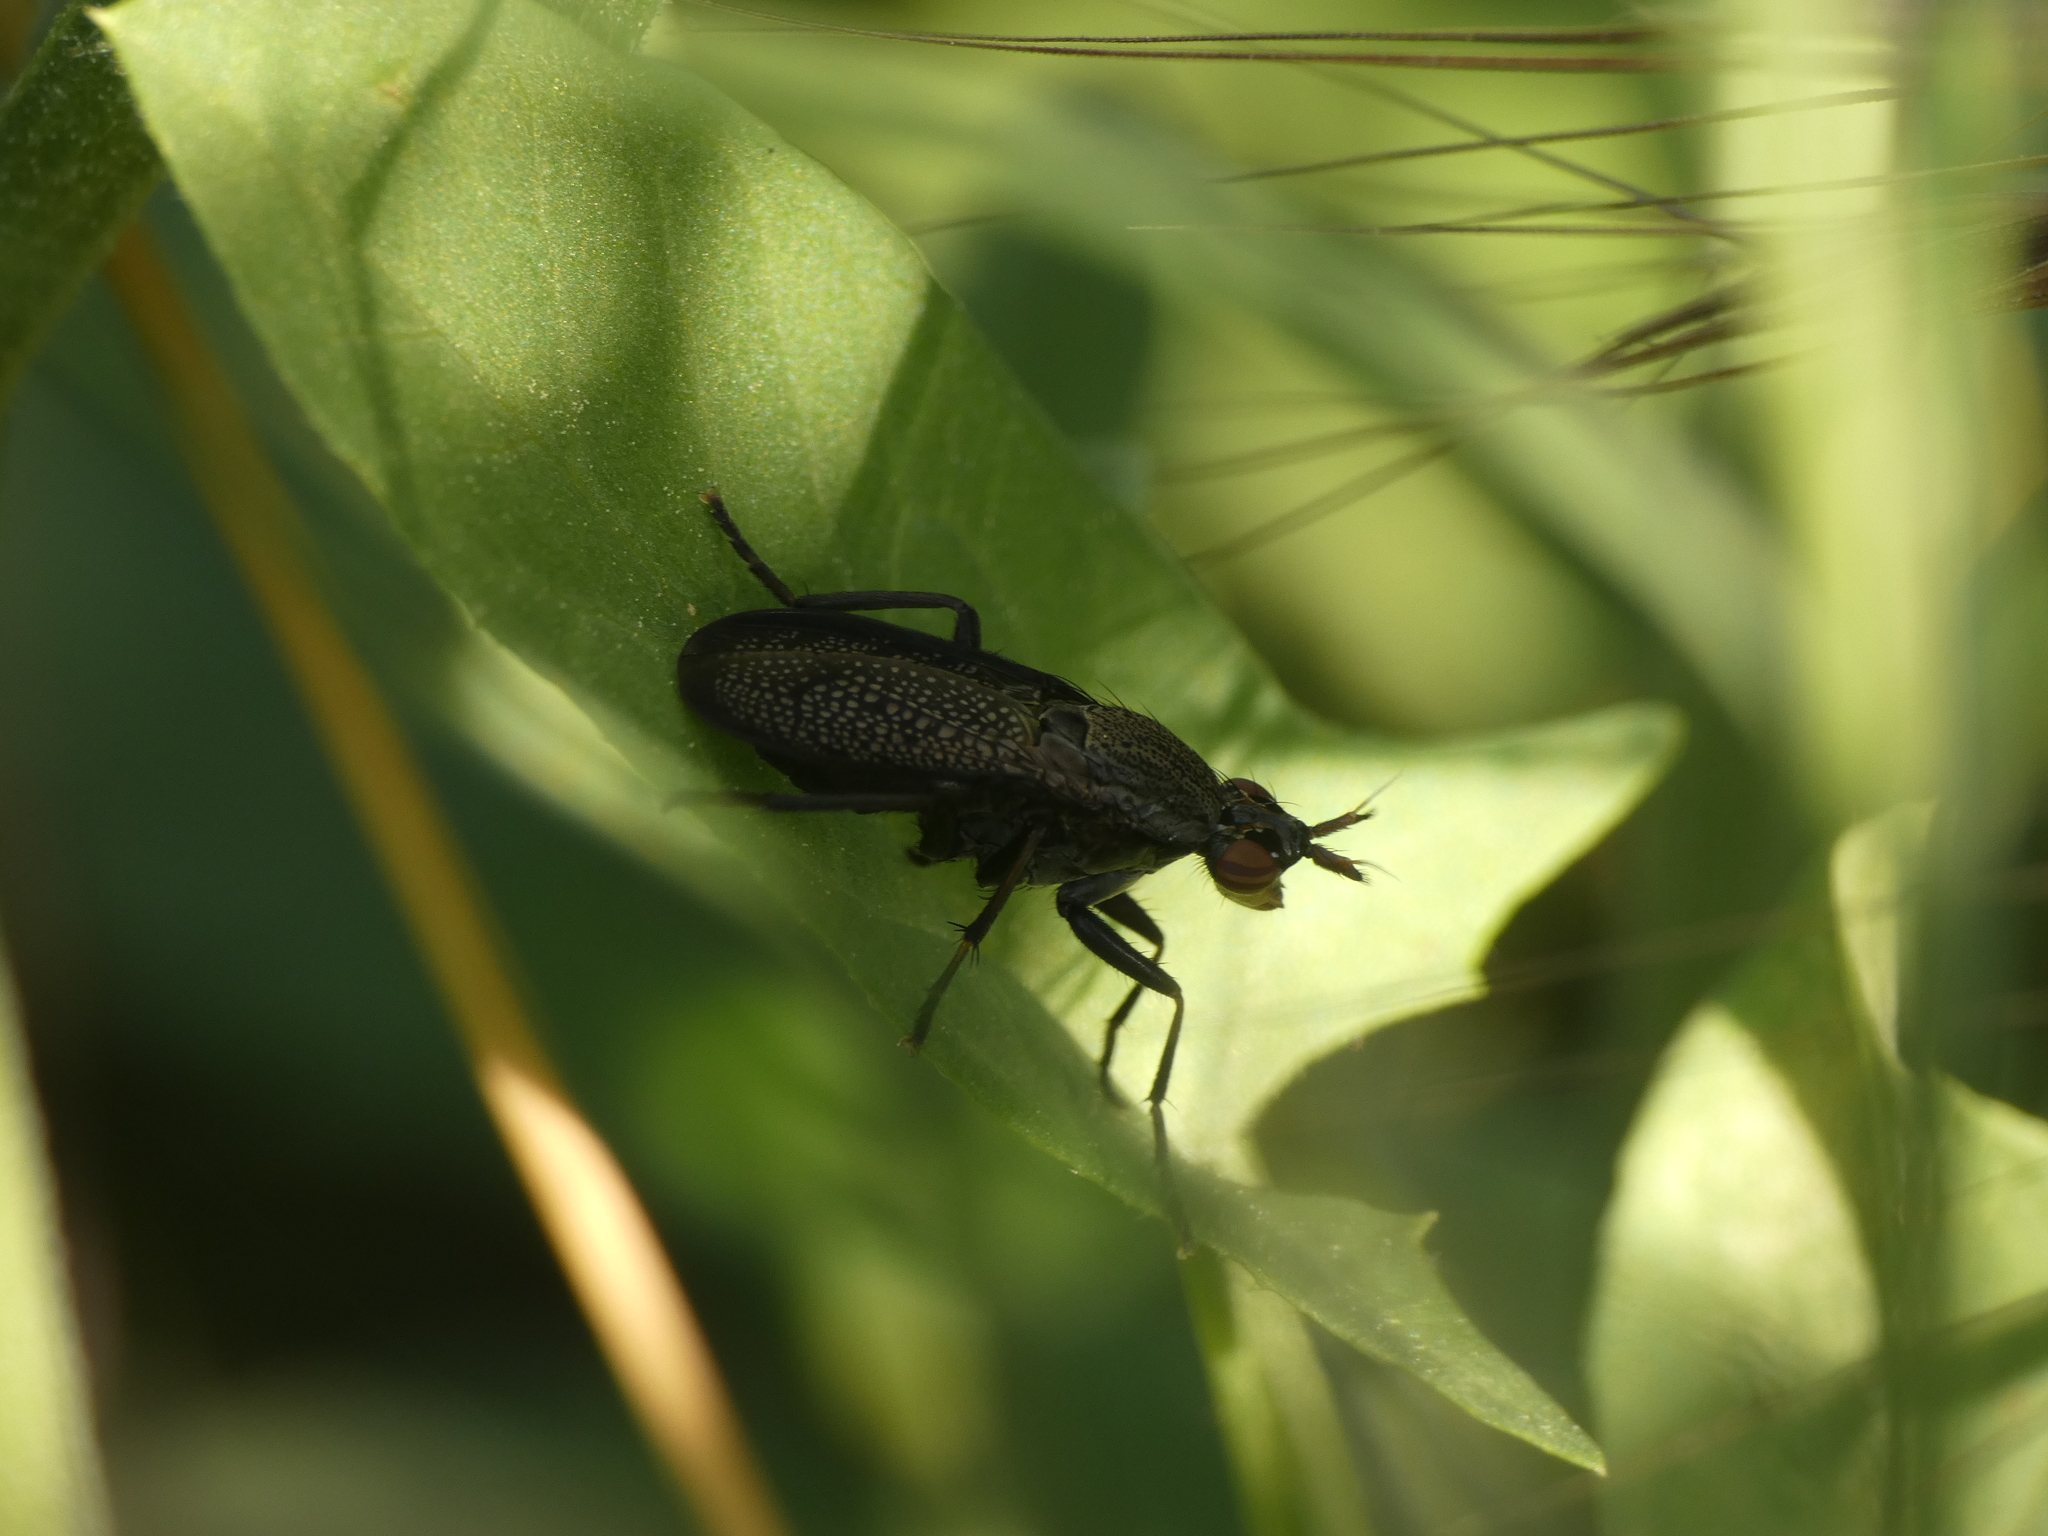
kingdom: Animalia
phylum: Arthropoda
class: Insecta
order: Diptera
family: Sciomyzidae
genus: Coremacera
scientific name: Coremacera marginata
